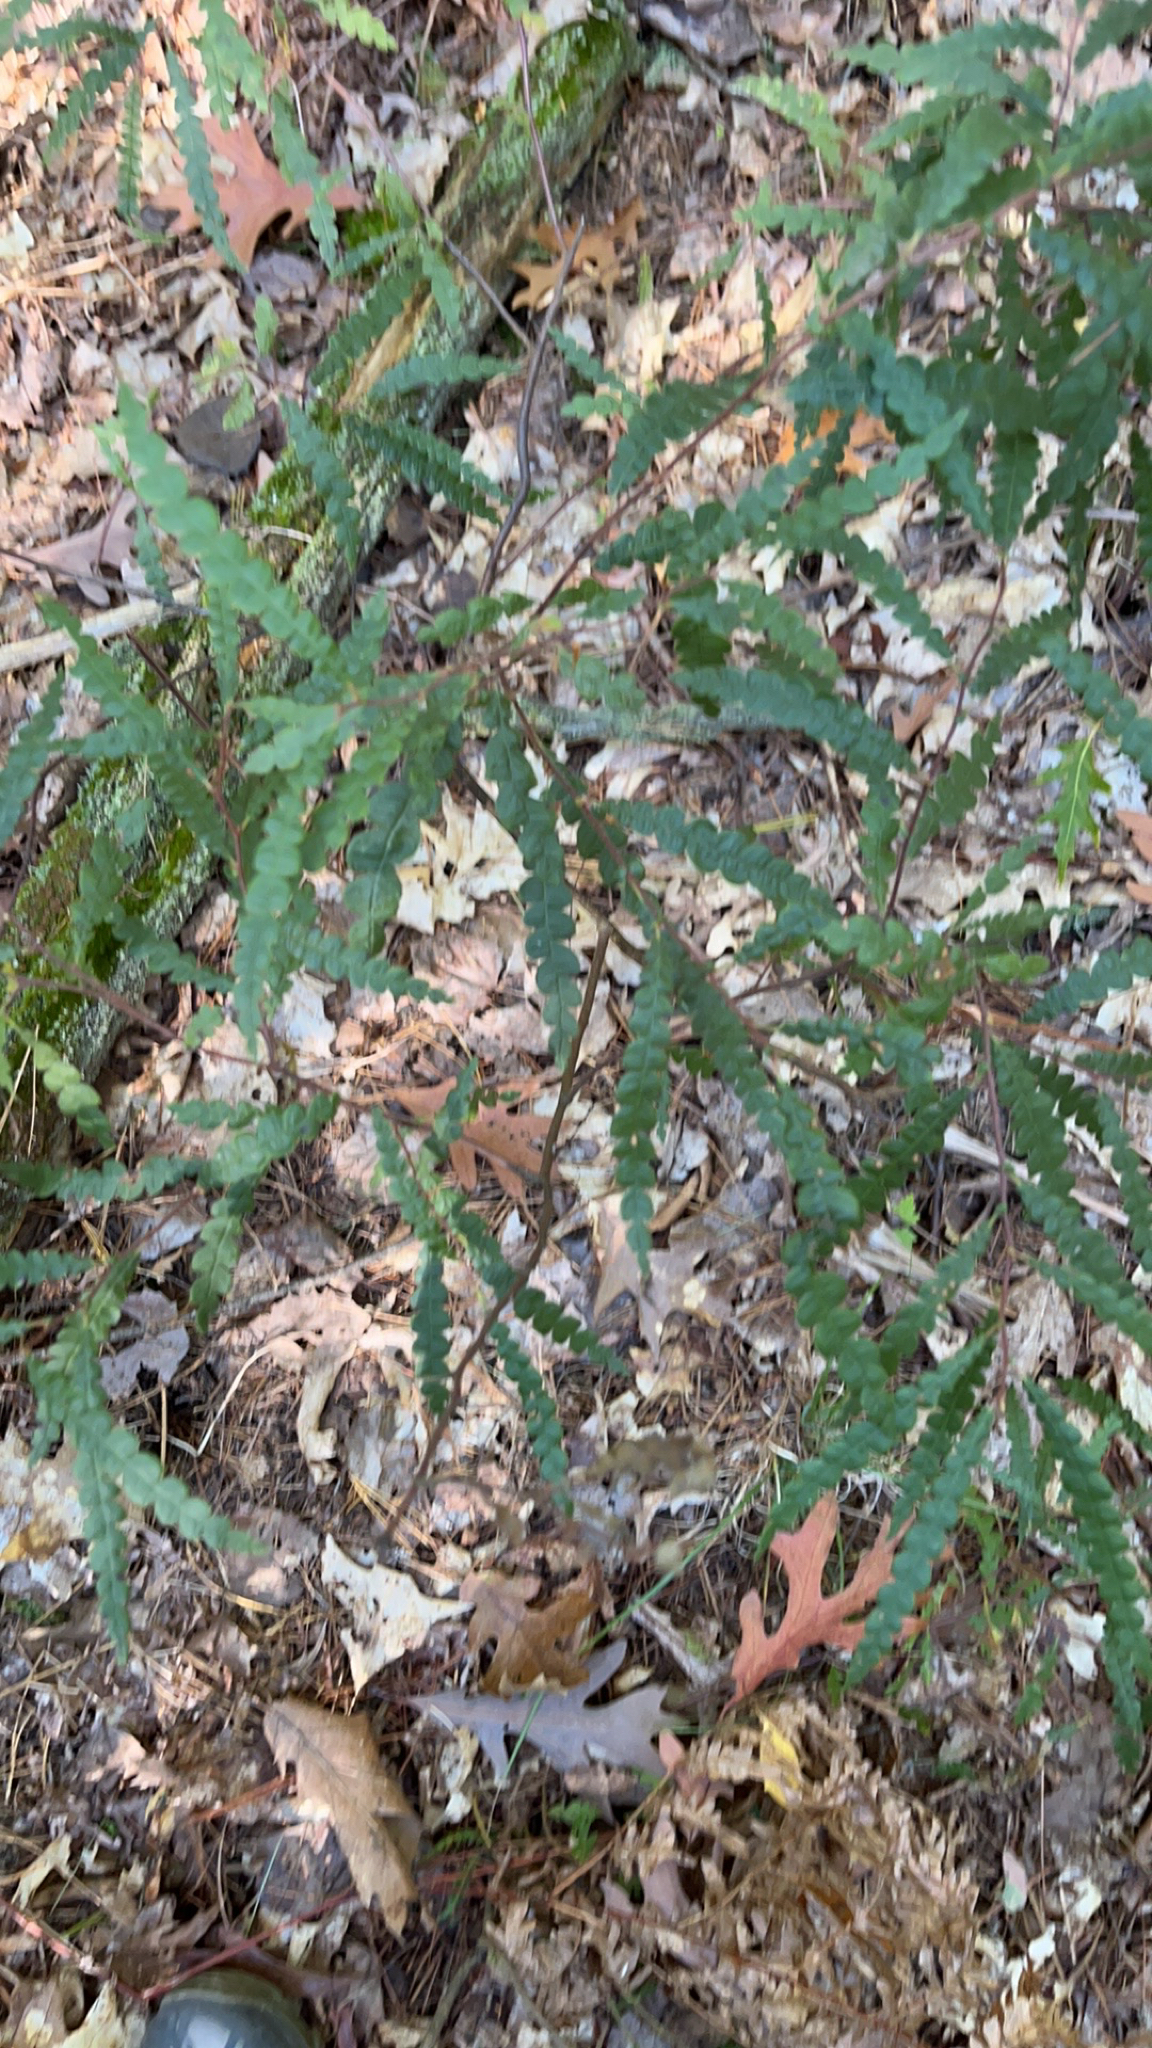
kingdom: Plantae
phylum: Tracheophyta
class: Magnoliopsida
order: Fagales
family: Myricaceae
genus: Comptonia
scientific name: Comptonia peregrina
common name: Sweet-fern
